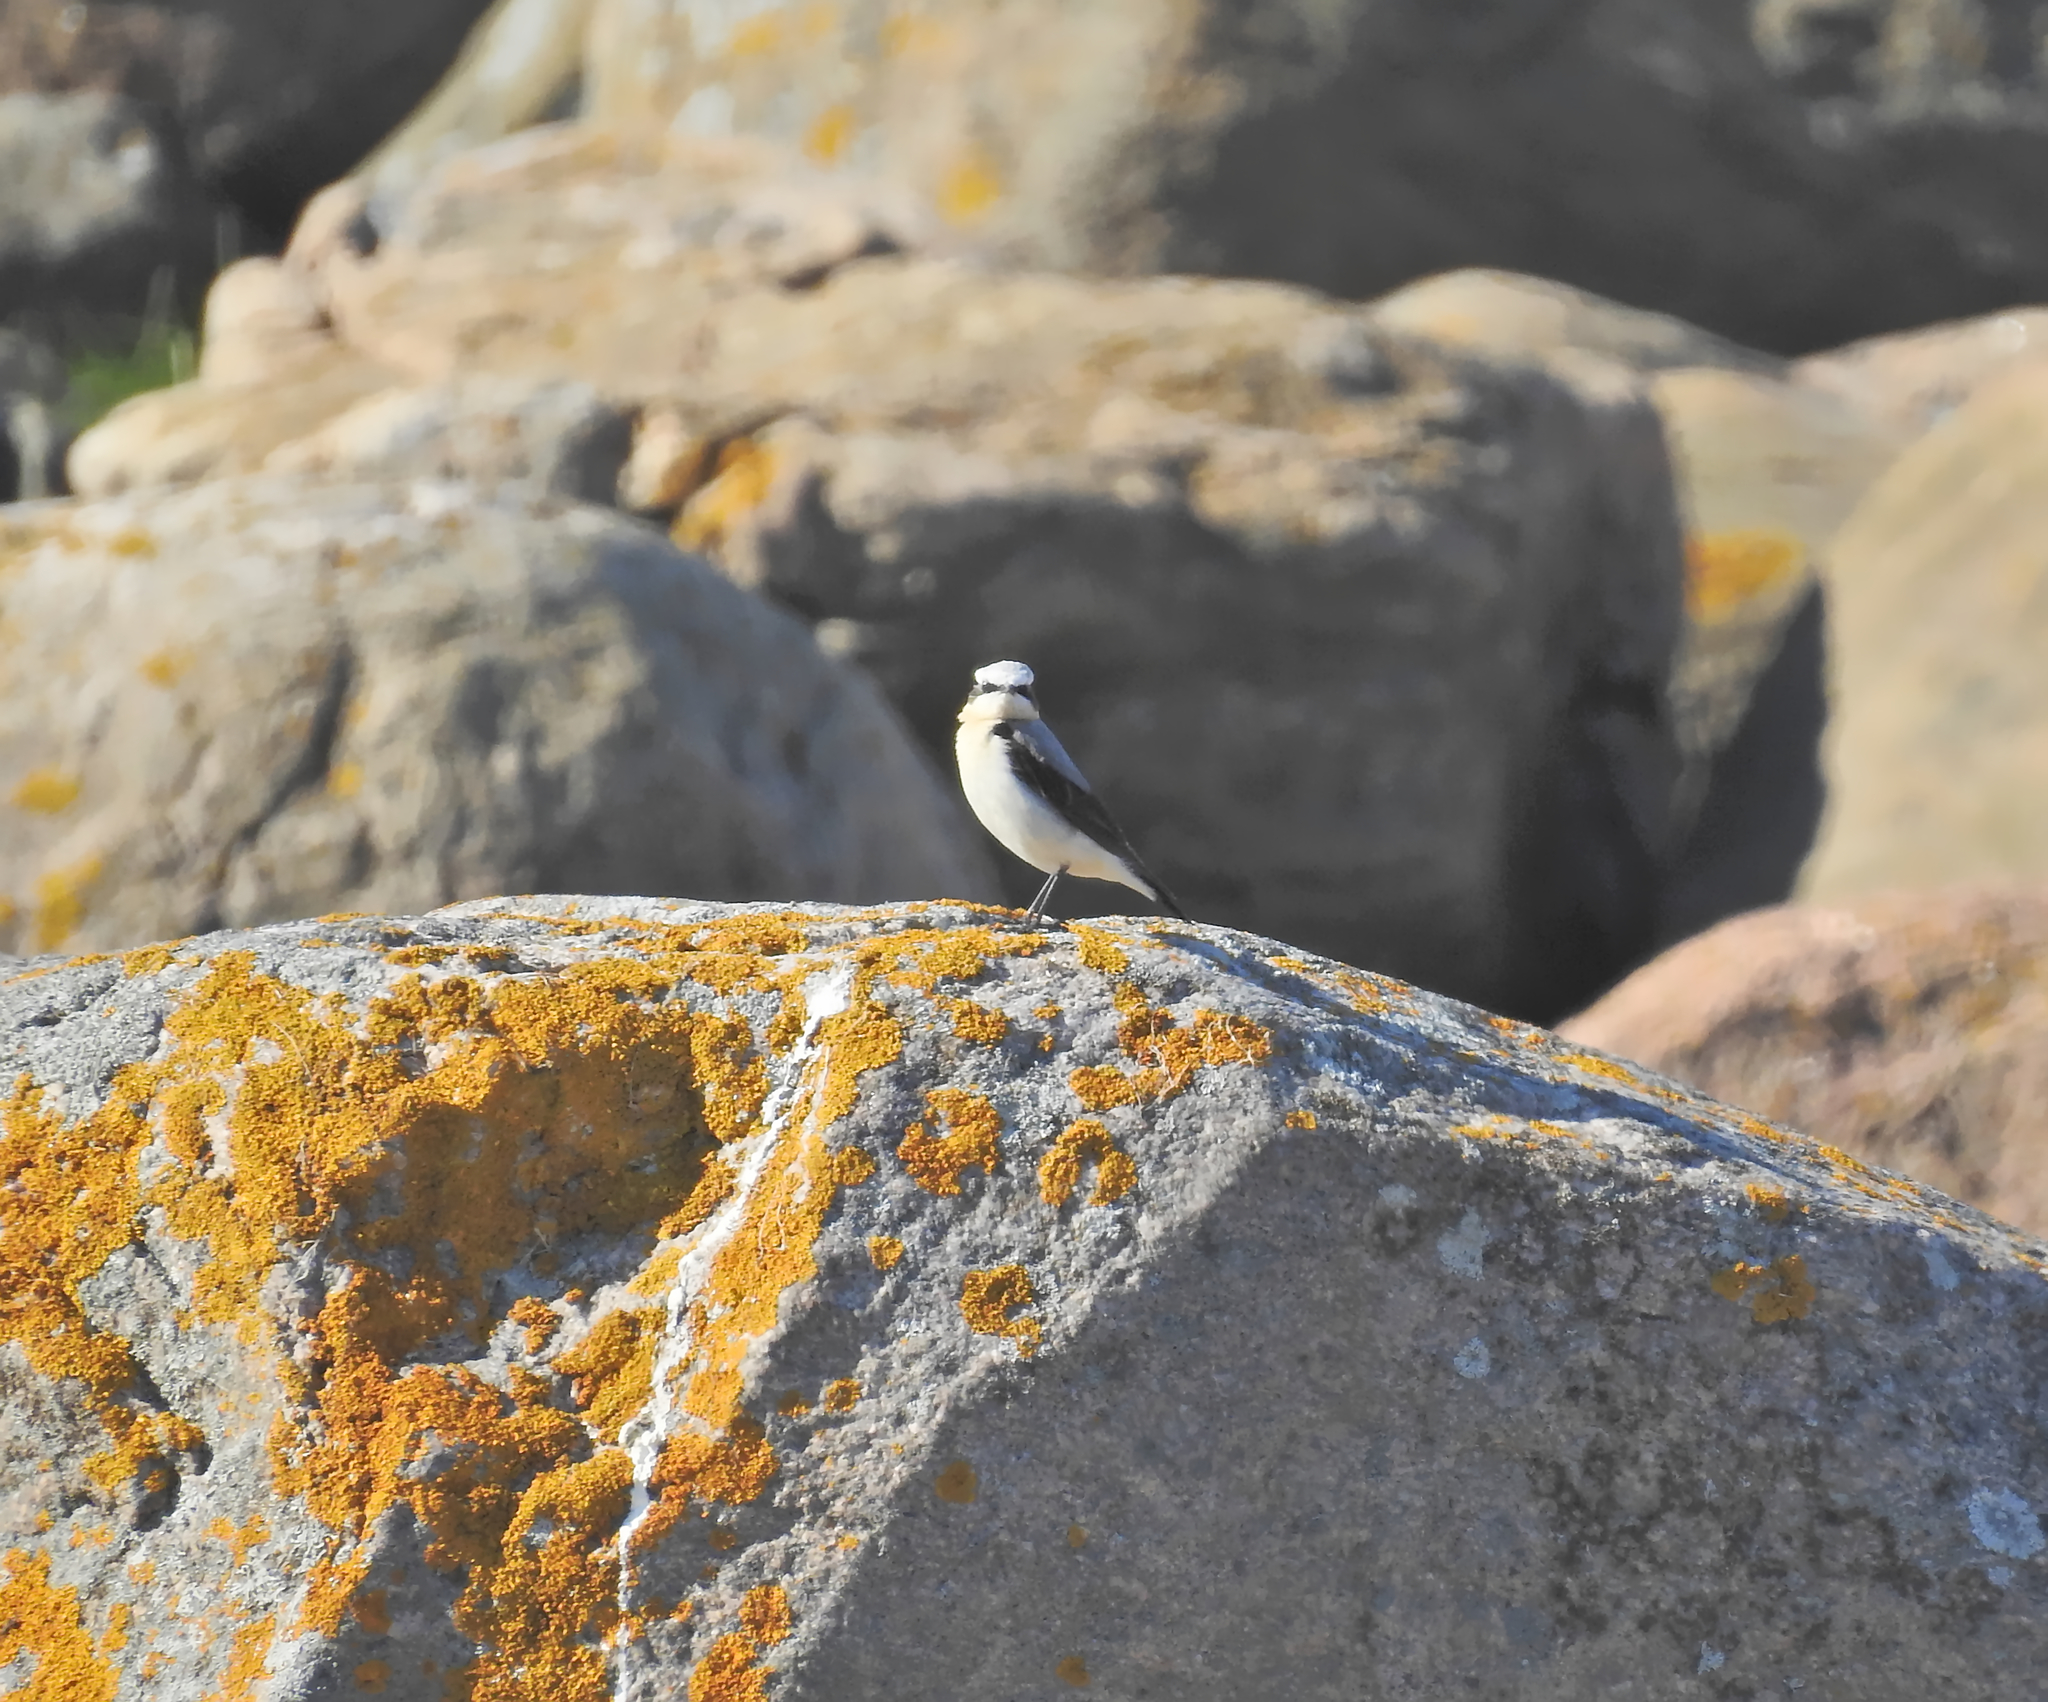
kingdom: Animalia
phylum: Chordata
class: Aves
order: Passeriformes
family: Muscicapidae
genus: Oenanthe
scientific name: Oenanthe oenanthe
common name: Northern wheatear
